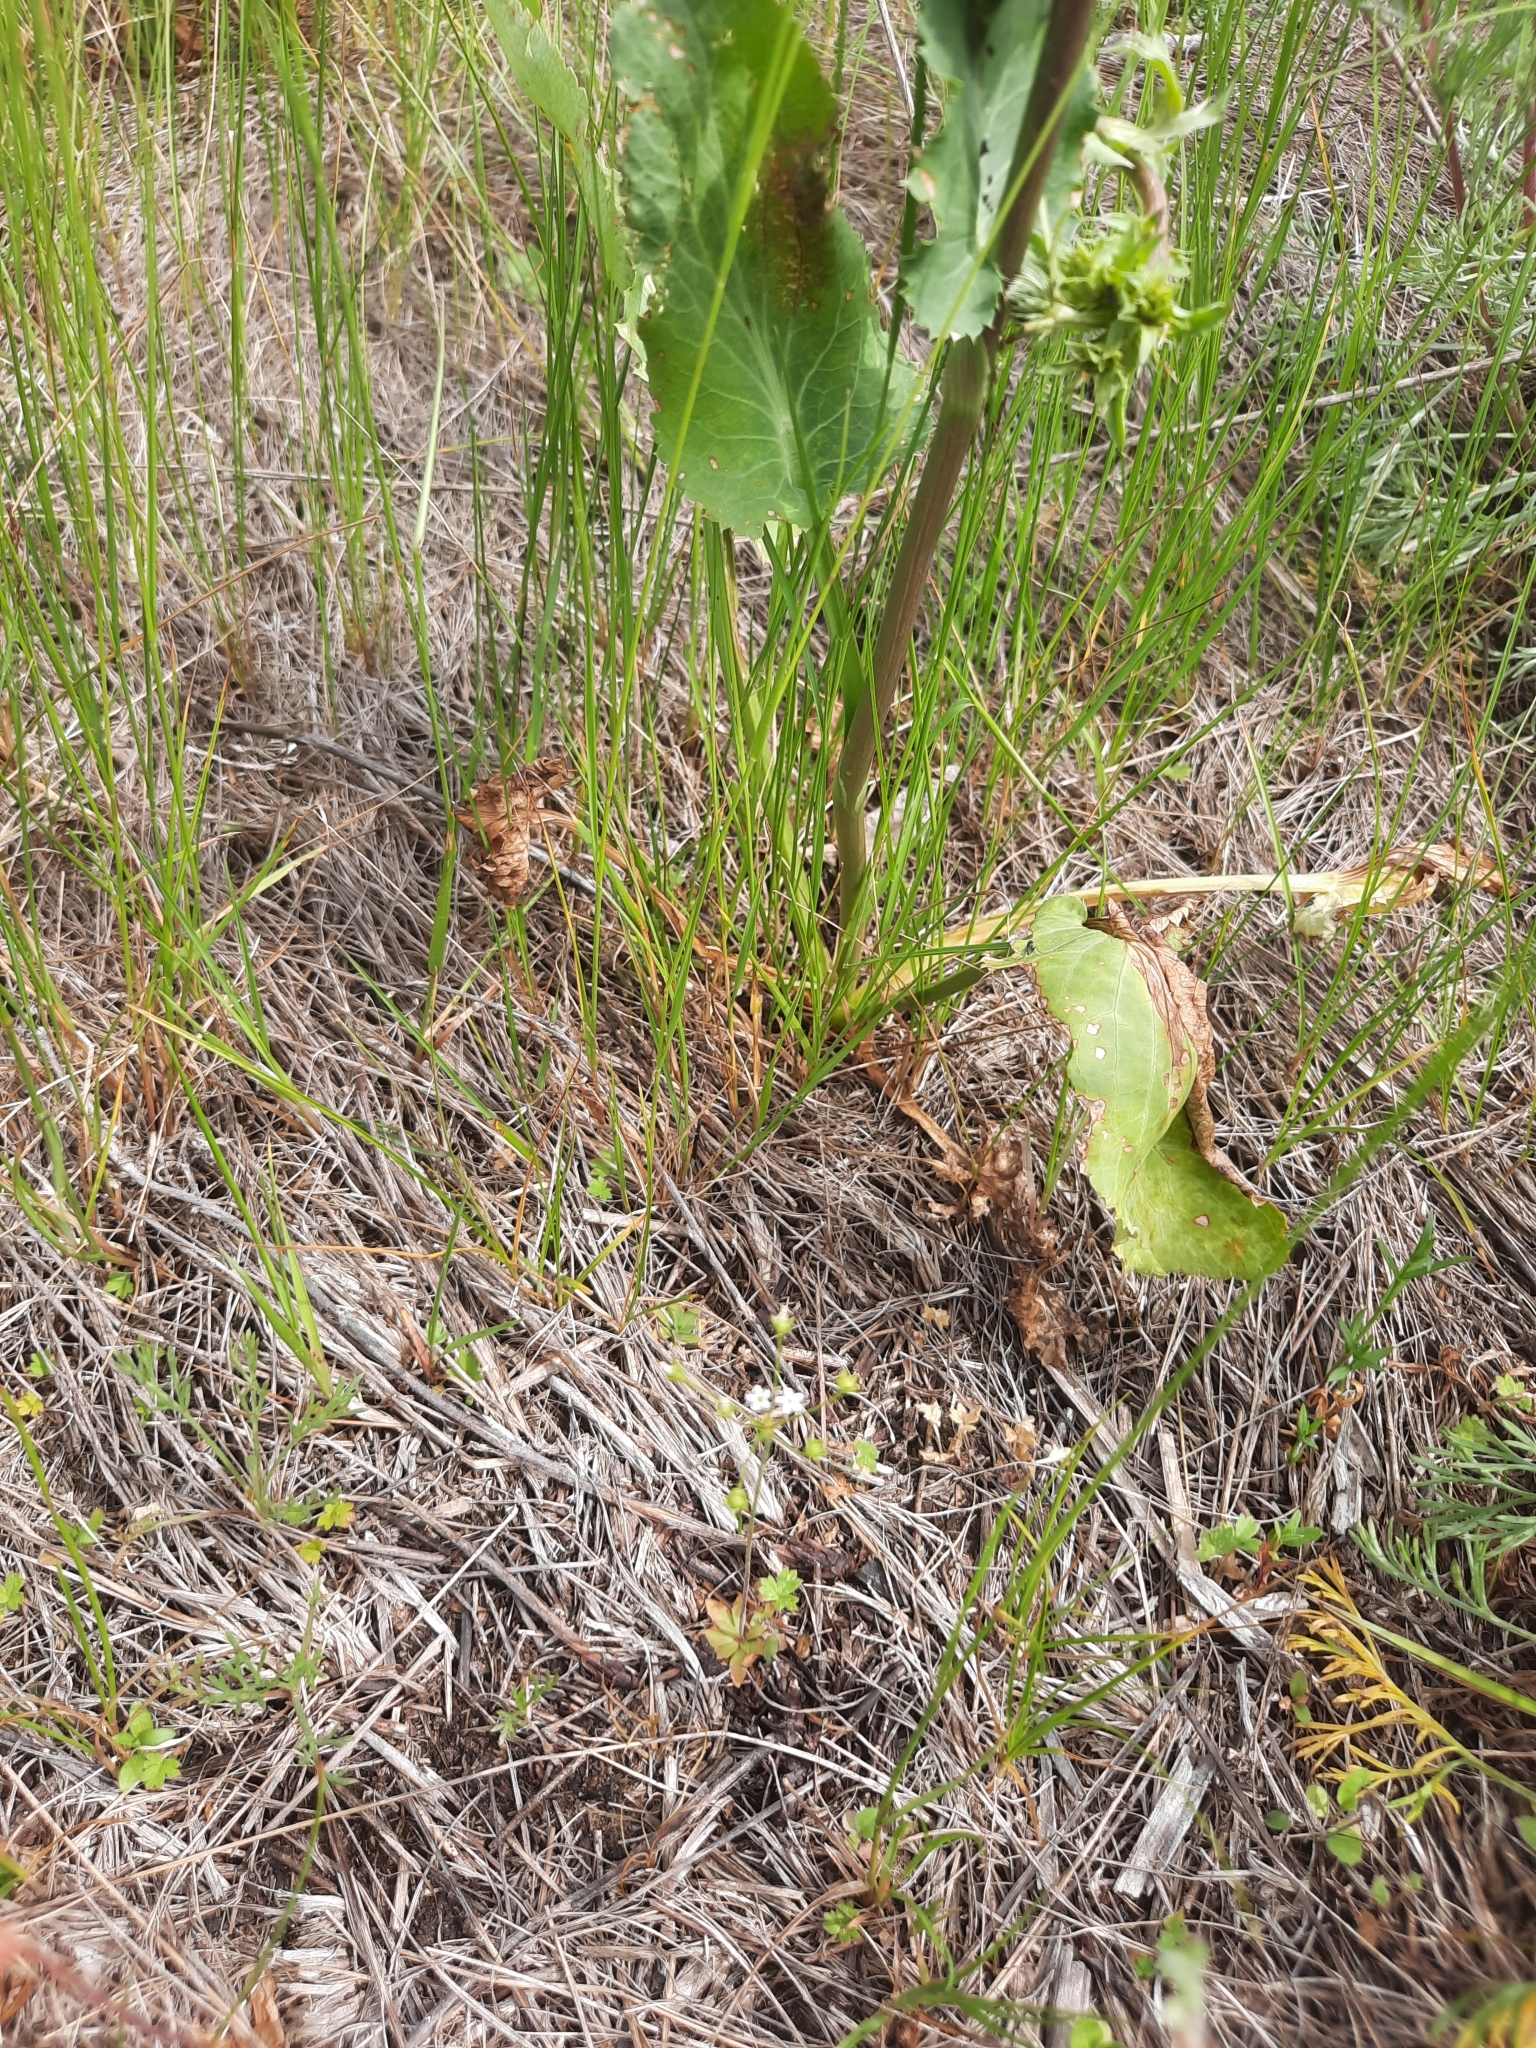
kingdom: Plantae
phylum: Tracheophyta
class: Magnoliopsida
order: Apiales
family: Apiaceae
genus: Eryngium
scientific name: Eryngium planum
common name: Blue eryngo
